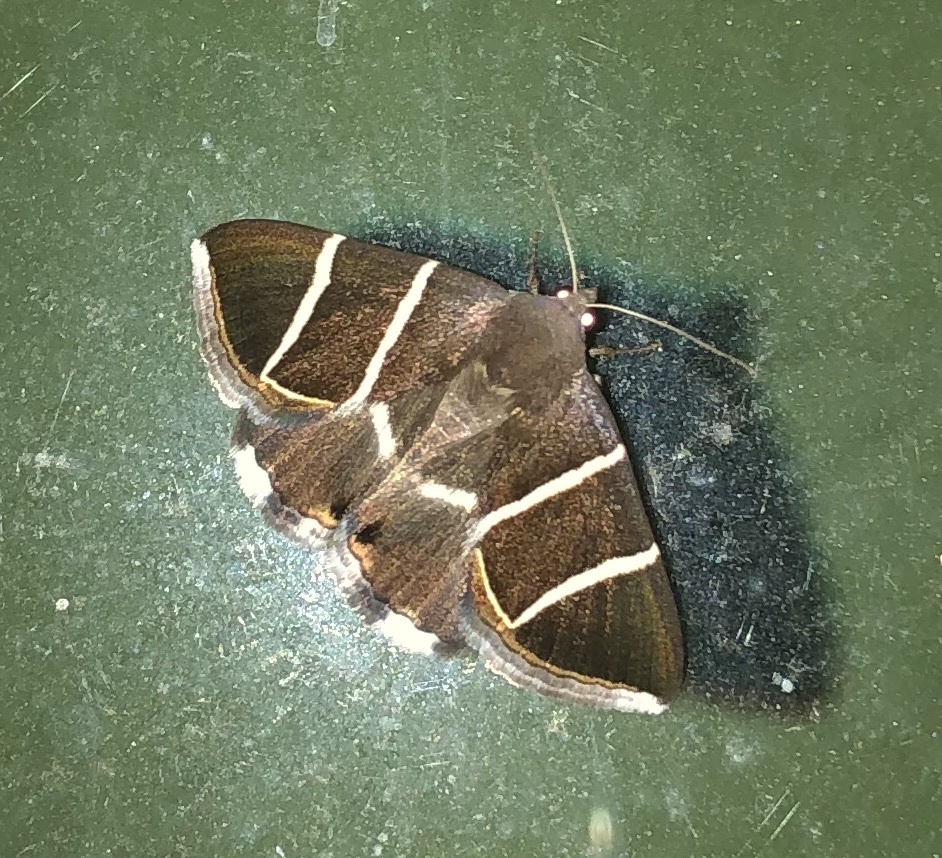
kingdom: Animalia
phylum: Arthropoda
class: Insecta
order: Lepidoptera
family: Erebidae
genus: Grammodes
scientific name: Grammodes justa
